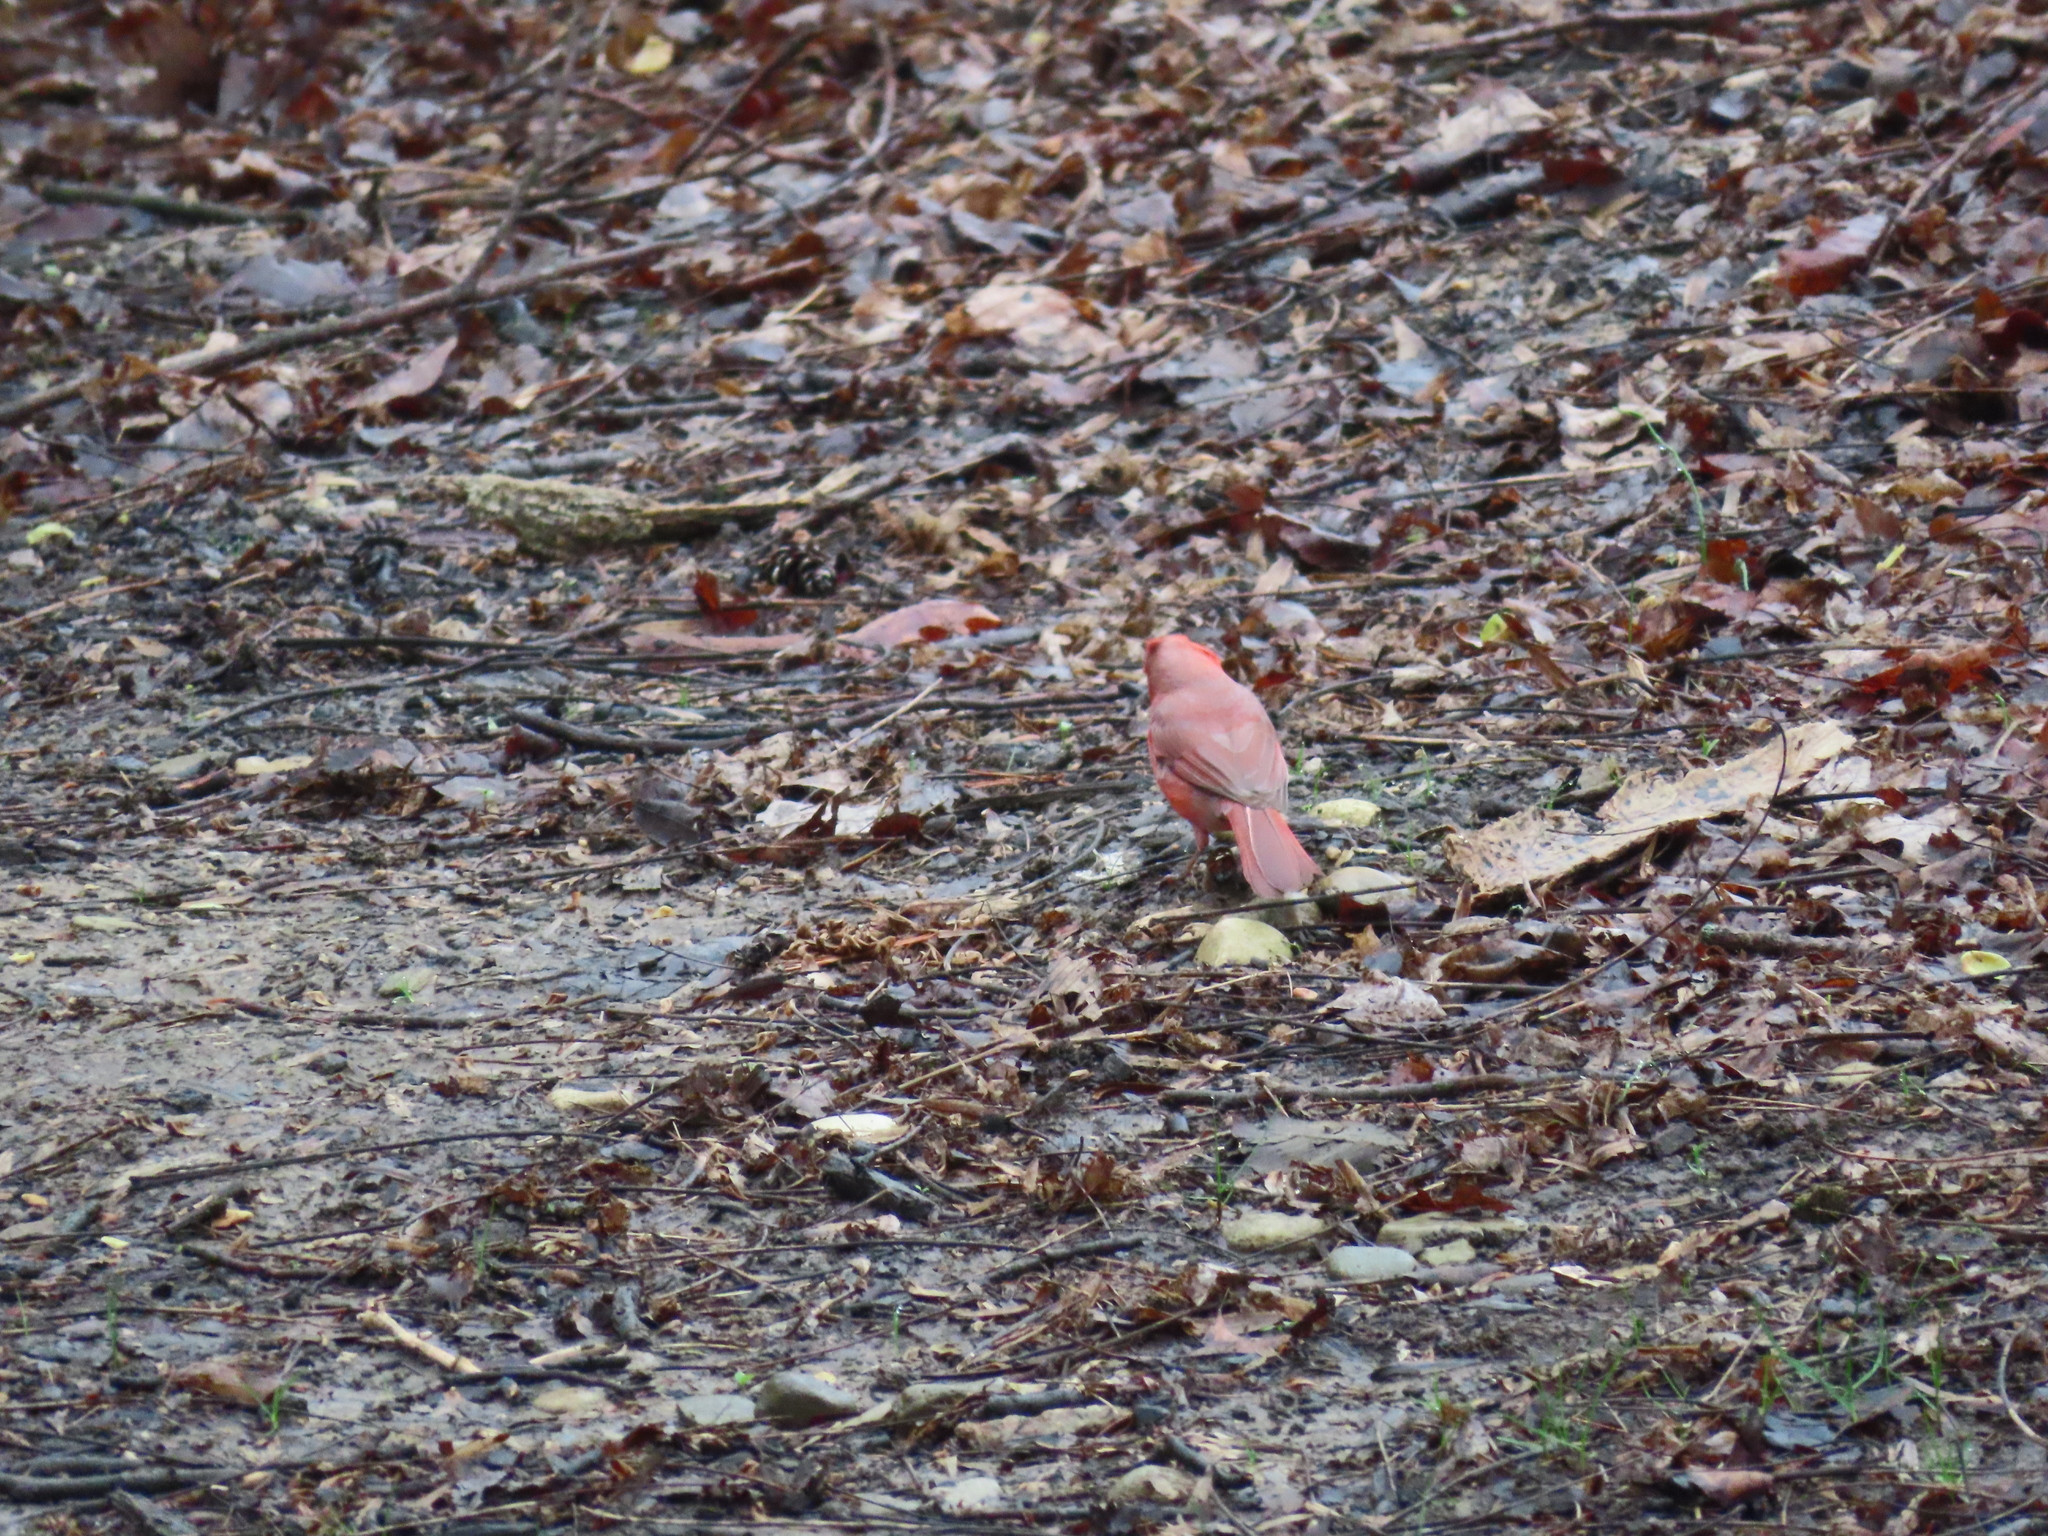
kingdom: Animalia
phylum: Chordata
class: Aves
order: Passeriformes
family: Cardinalidae
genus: Cardinalis
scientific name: Cardinalis cardinalis
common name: Northern cardinal
